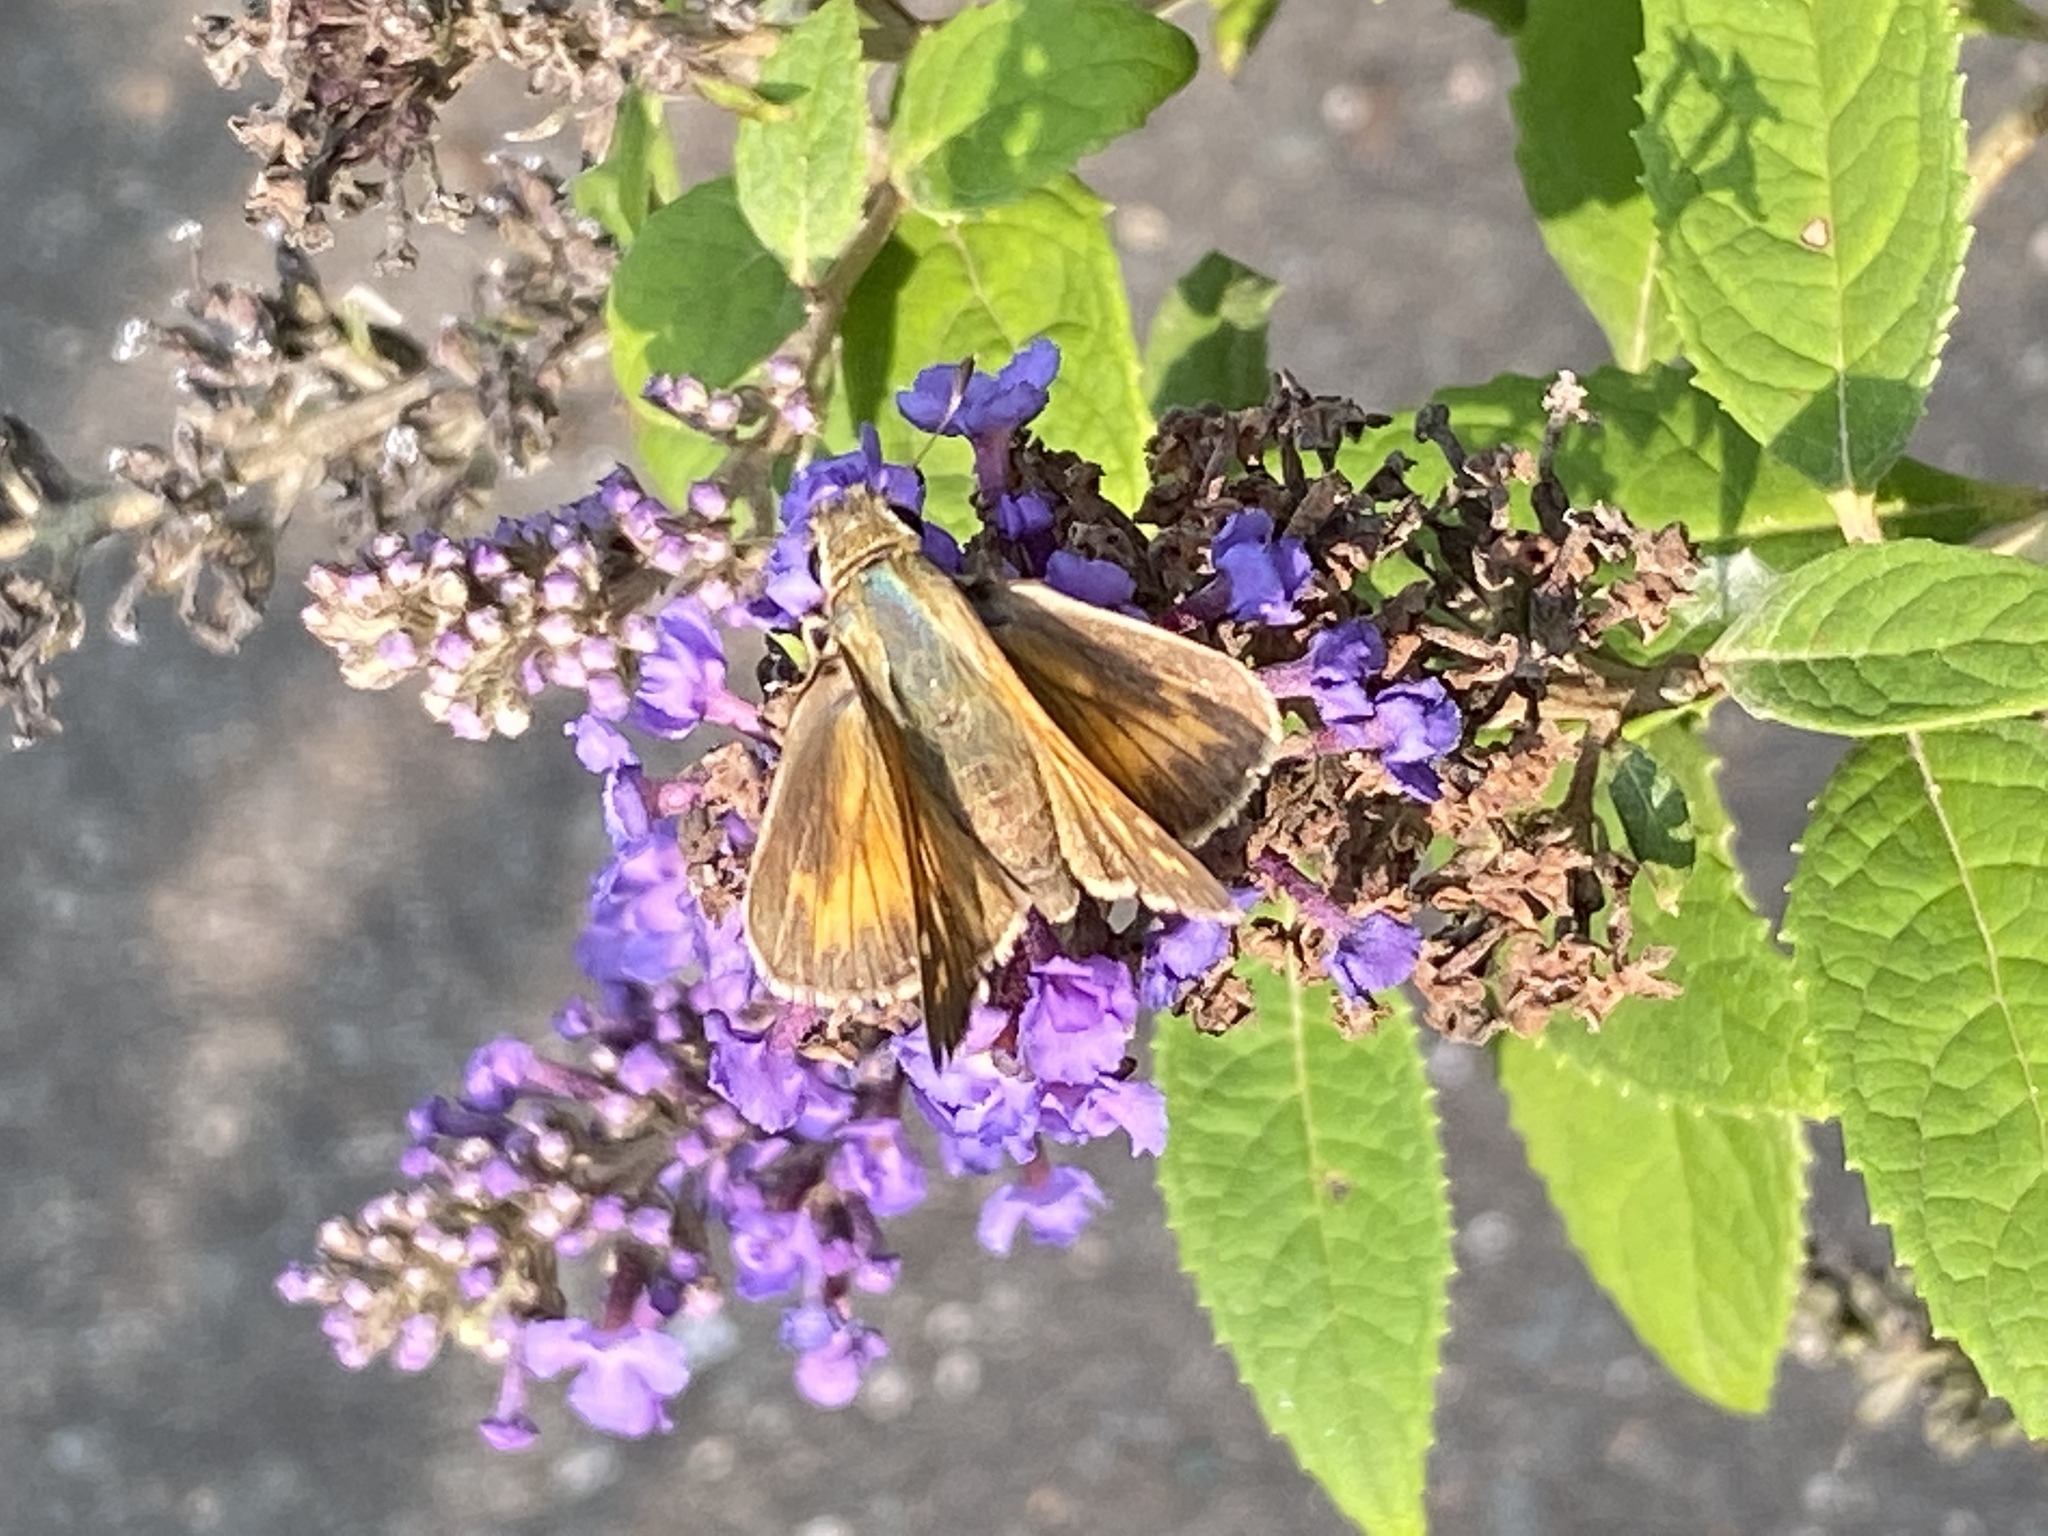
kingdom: Animalia
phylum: Arthropoda
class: Insecta
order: Lepidoptera
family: Hesperiidae
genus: Atalopedes
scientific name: Atalopedes
